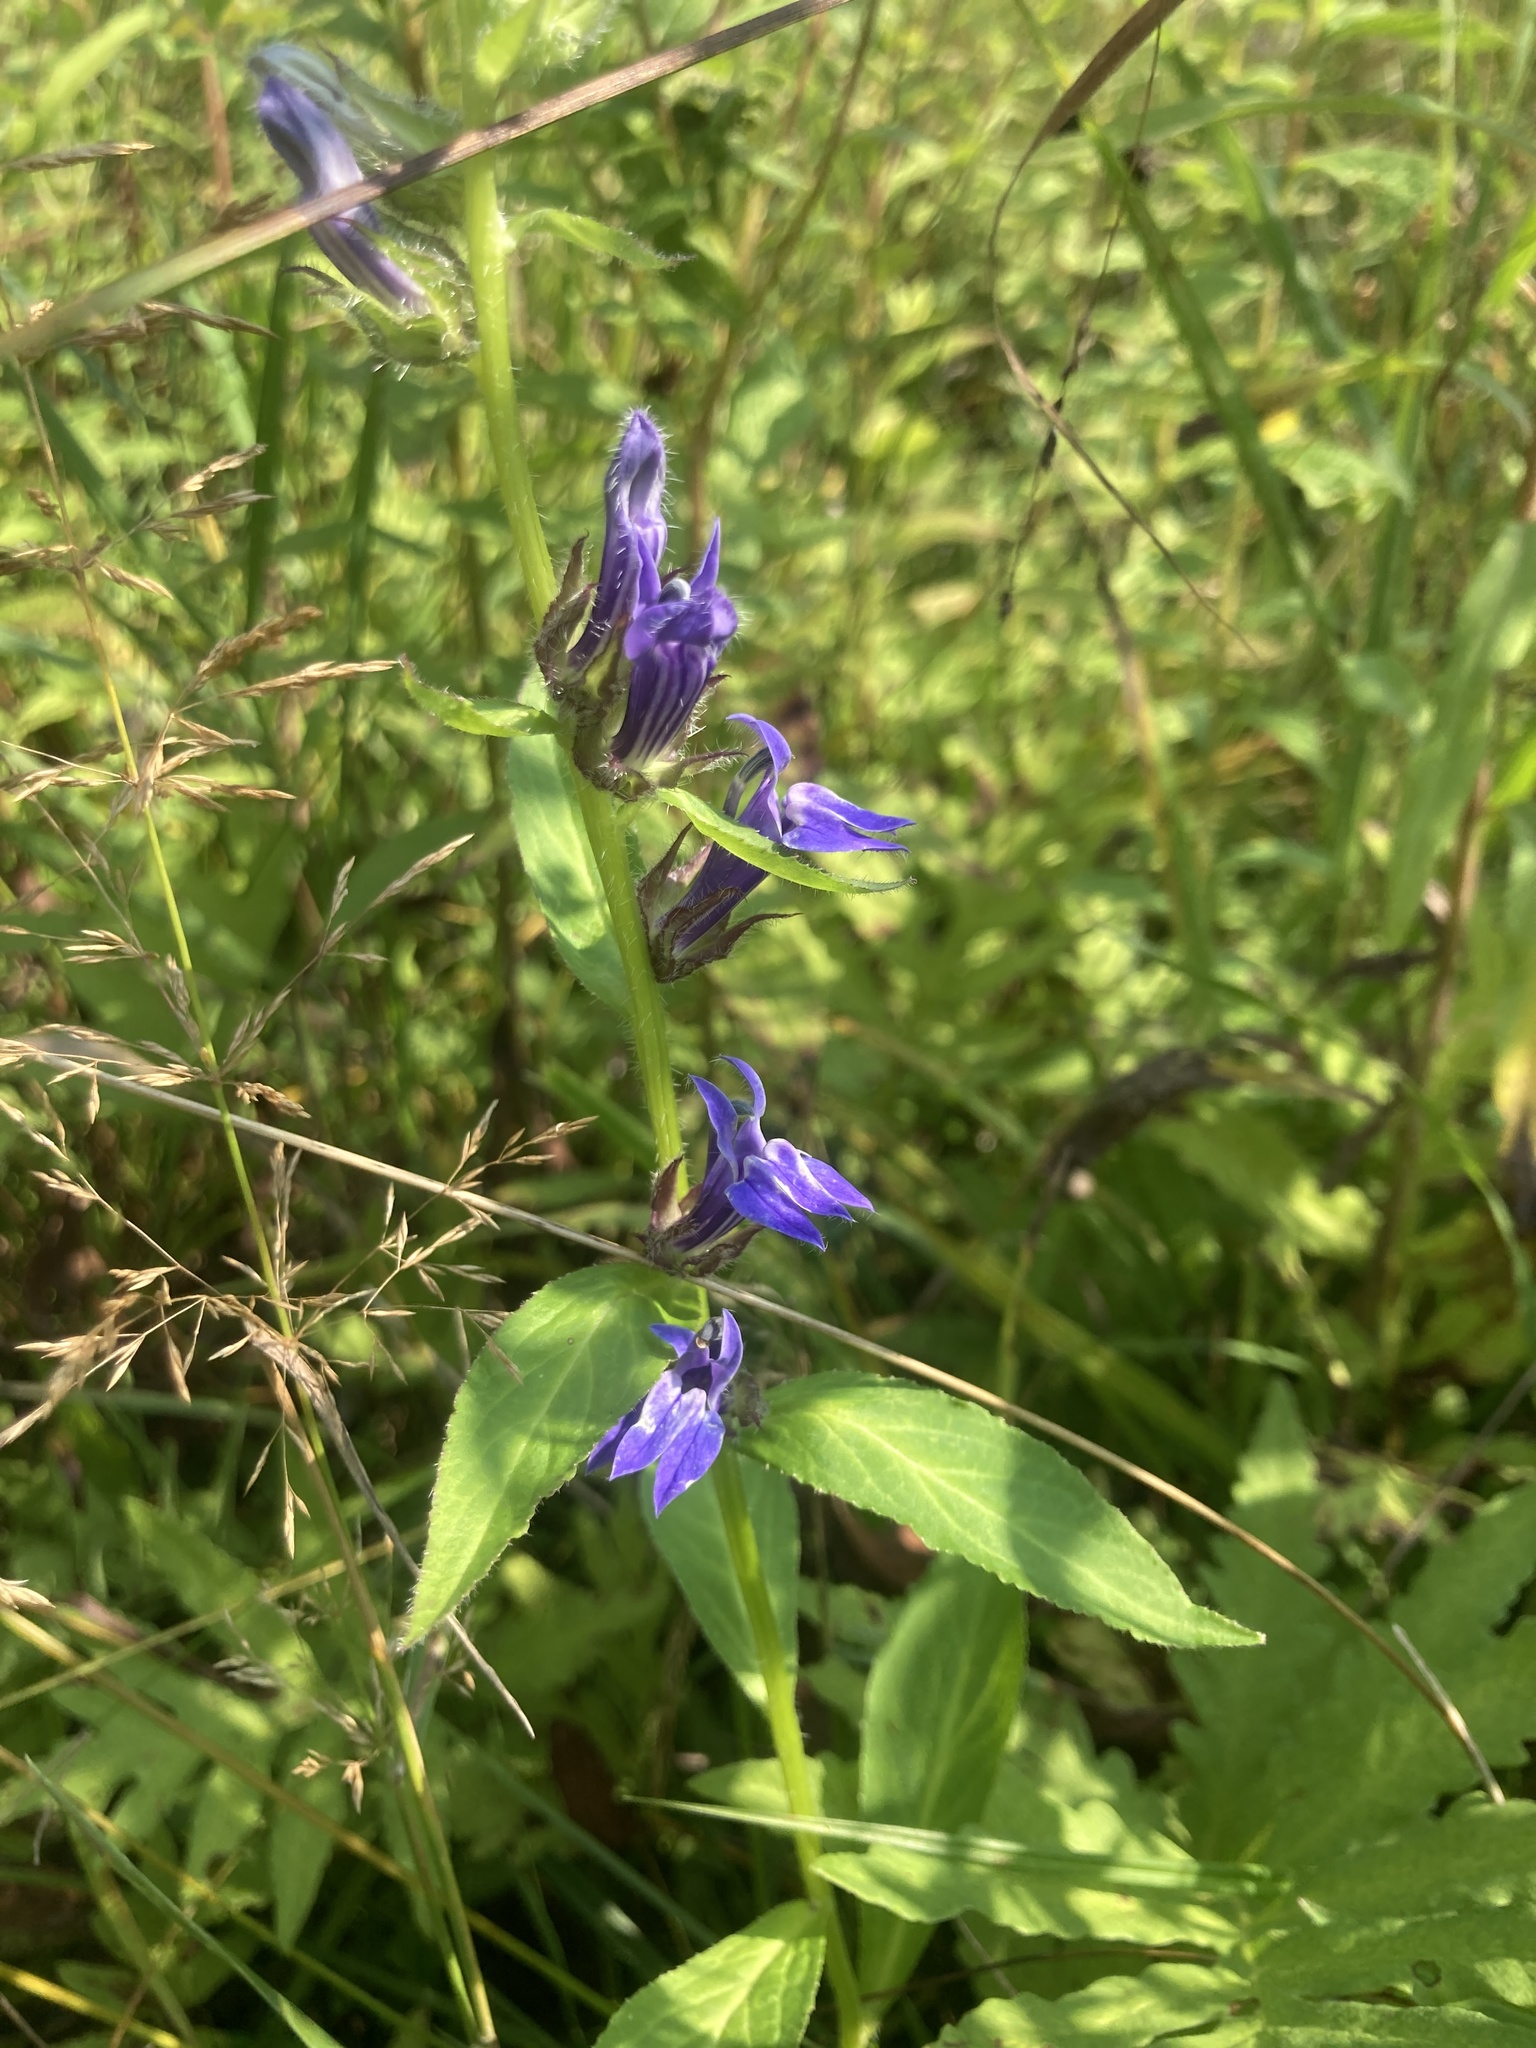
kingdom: Plantae
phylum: Tracheophyta
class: Magnoliopsida
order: Asterales
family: Campanulaceae
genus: Lobelia
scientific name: Lobelia siphilitica
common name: Great lobelia
